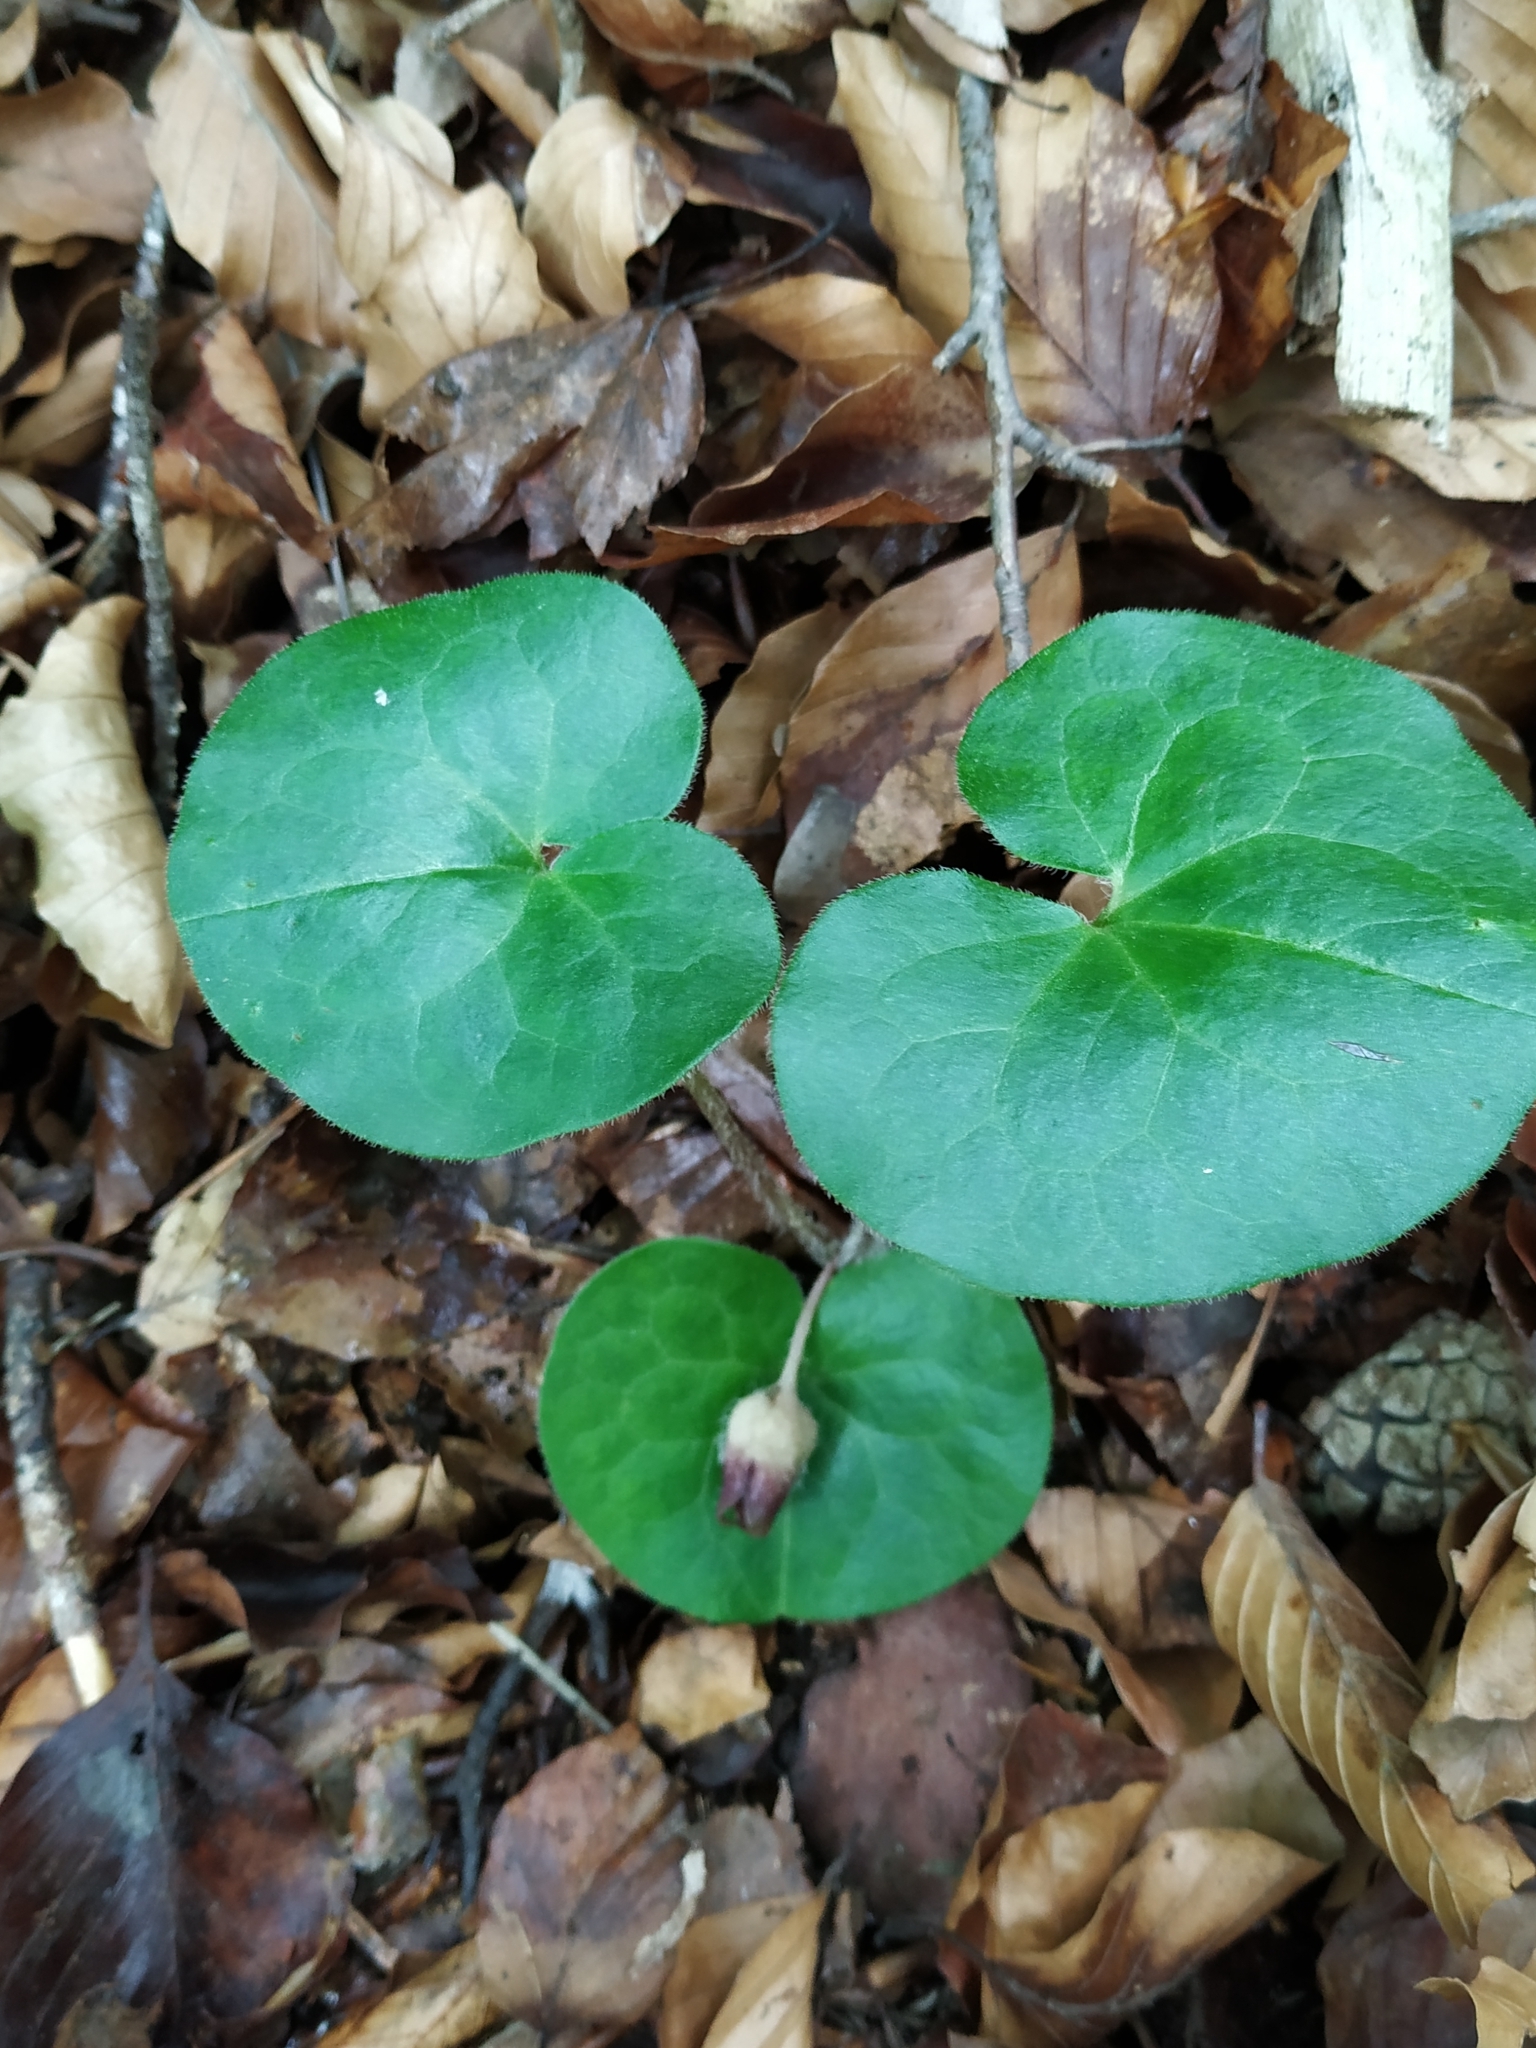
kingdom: Plantae
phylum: Tracheophyta
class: Magnoliopsida
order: Piperales
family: Aristolochiaceae
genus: Asarum
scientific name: Asarum europaeum
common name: Asarabacca
